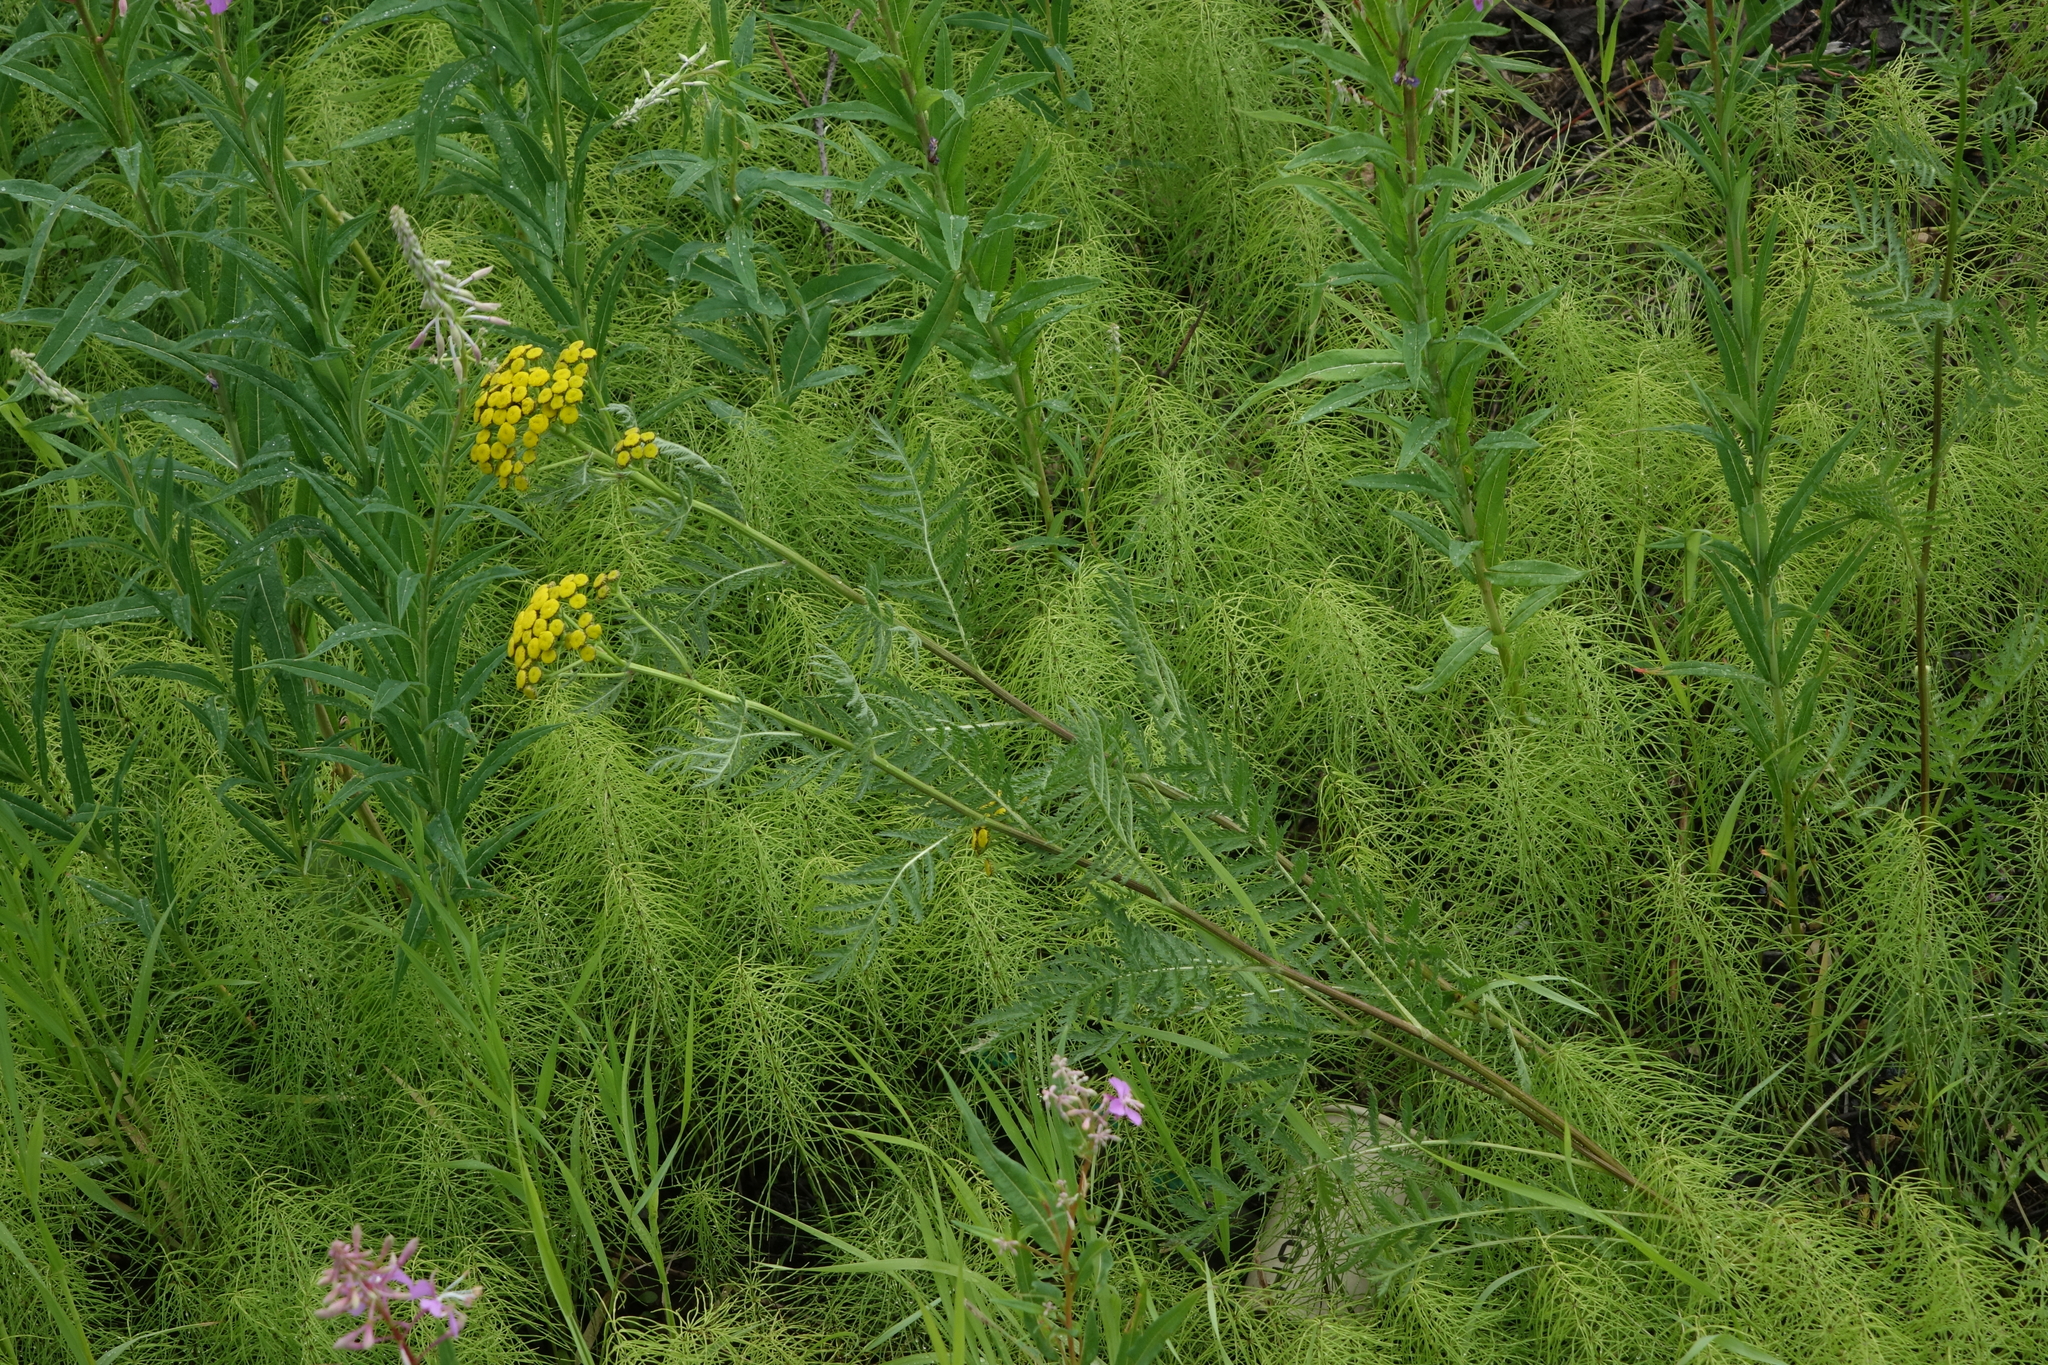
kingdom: Plantae
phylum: Tracheophyta
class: Magnoliopsida
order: Asterales
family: Asteraceae
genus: Tanacetum
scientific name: Tanacetum vulgare
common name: Common tansy
